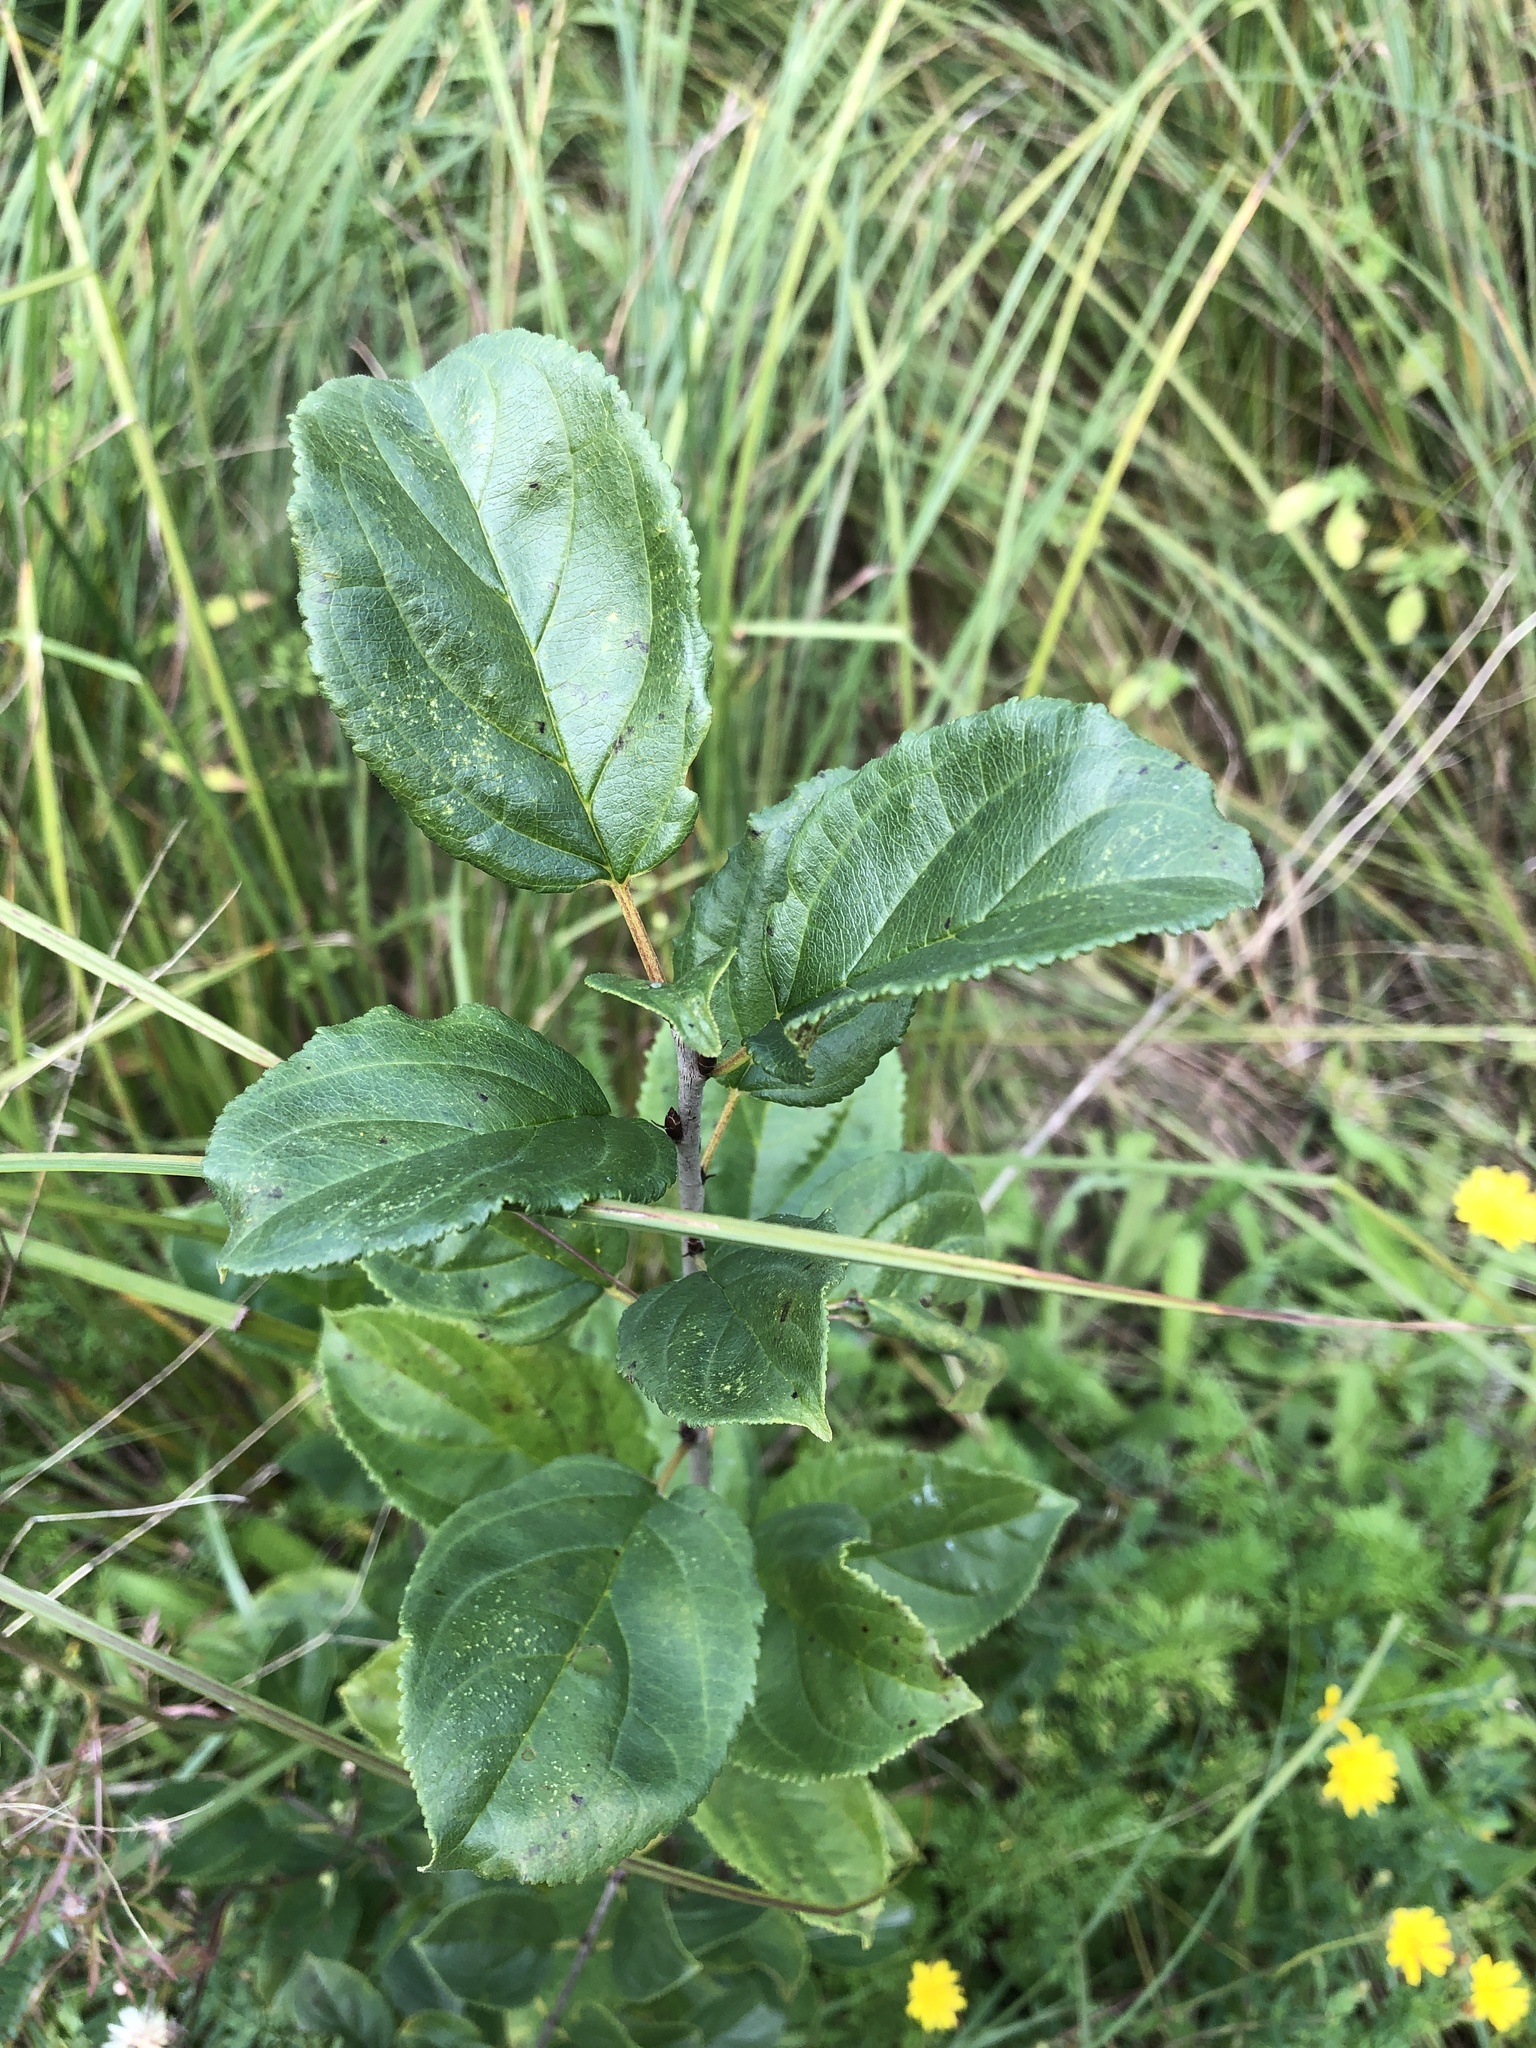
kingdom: Plantae
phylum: Tracheophyta
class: Magnoliopsida
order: Rosales
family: Rhamnaceae
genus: Rhamnus
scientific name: Rhamnus cathartica
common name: Common buckthorn
